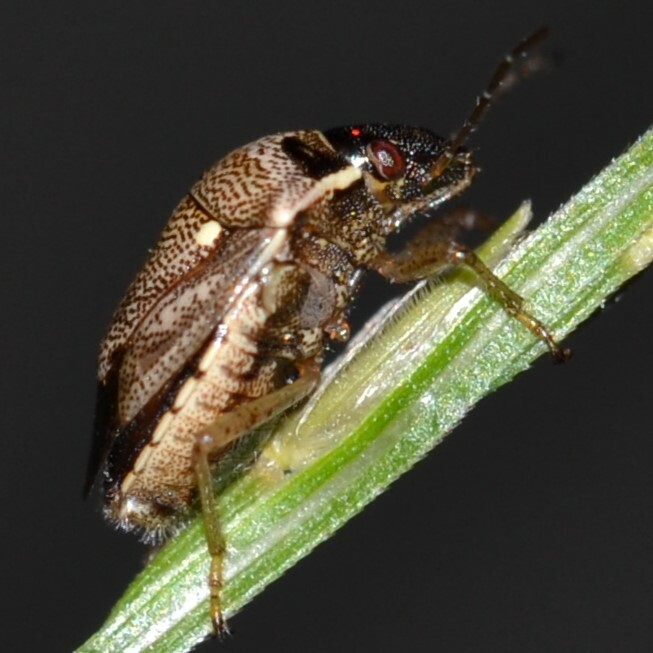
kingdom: Animalia
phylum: Arthropoda
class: Insecta
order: Hemiptera
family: Pentatomidae
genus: Eysarcoris
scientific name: Eysarcoris ventralis
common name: White-spotted stink bug
